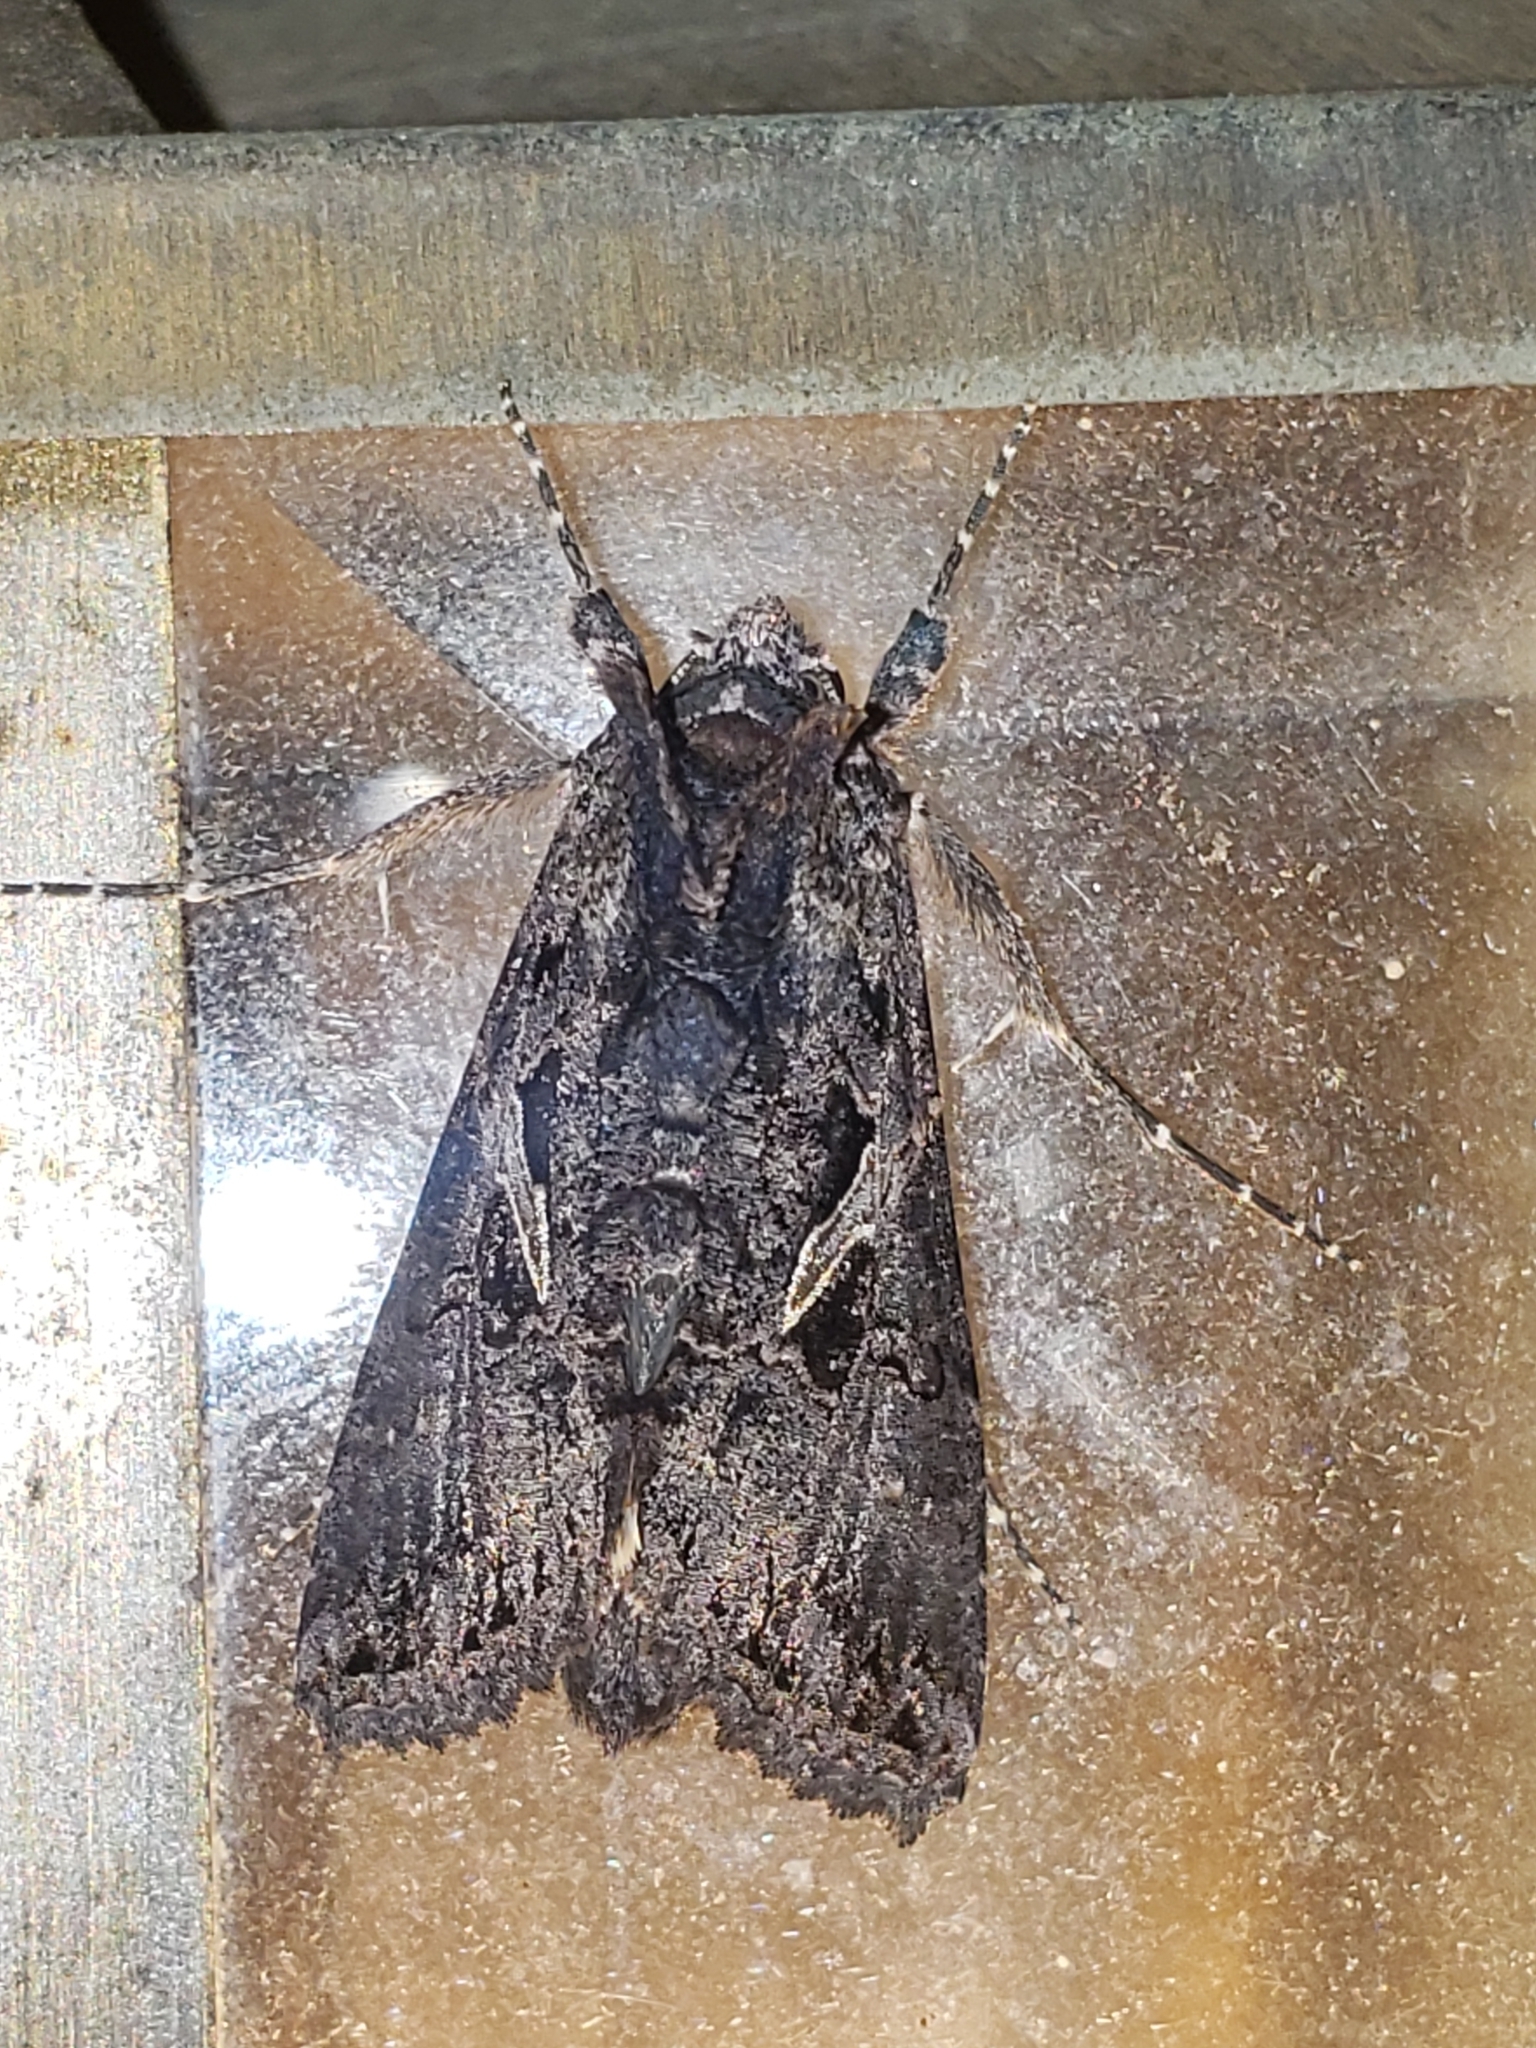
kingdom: Animalia
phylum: Arthropoda
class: Insecta
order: Lepidoptera
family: Noctuidae
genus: Ctenoplusia
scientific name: Ctenoplusia oxygramma
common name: Sharp-stigma looper moth
